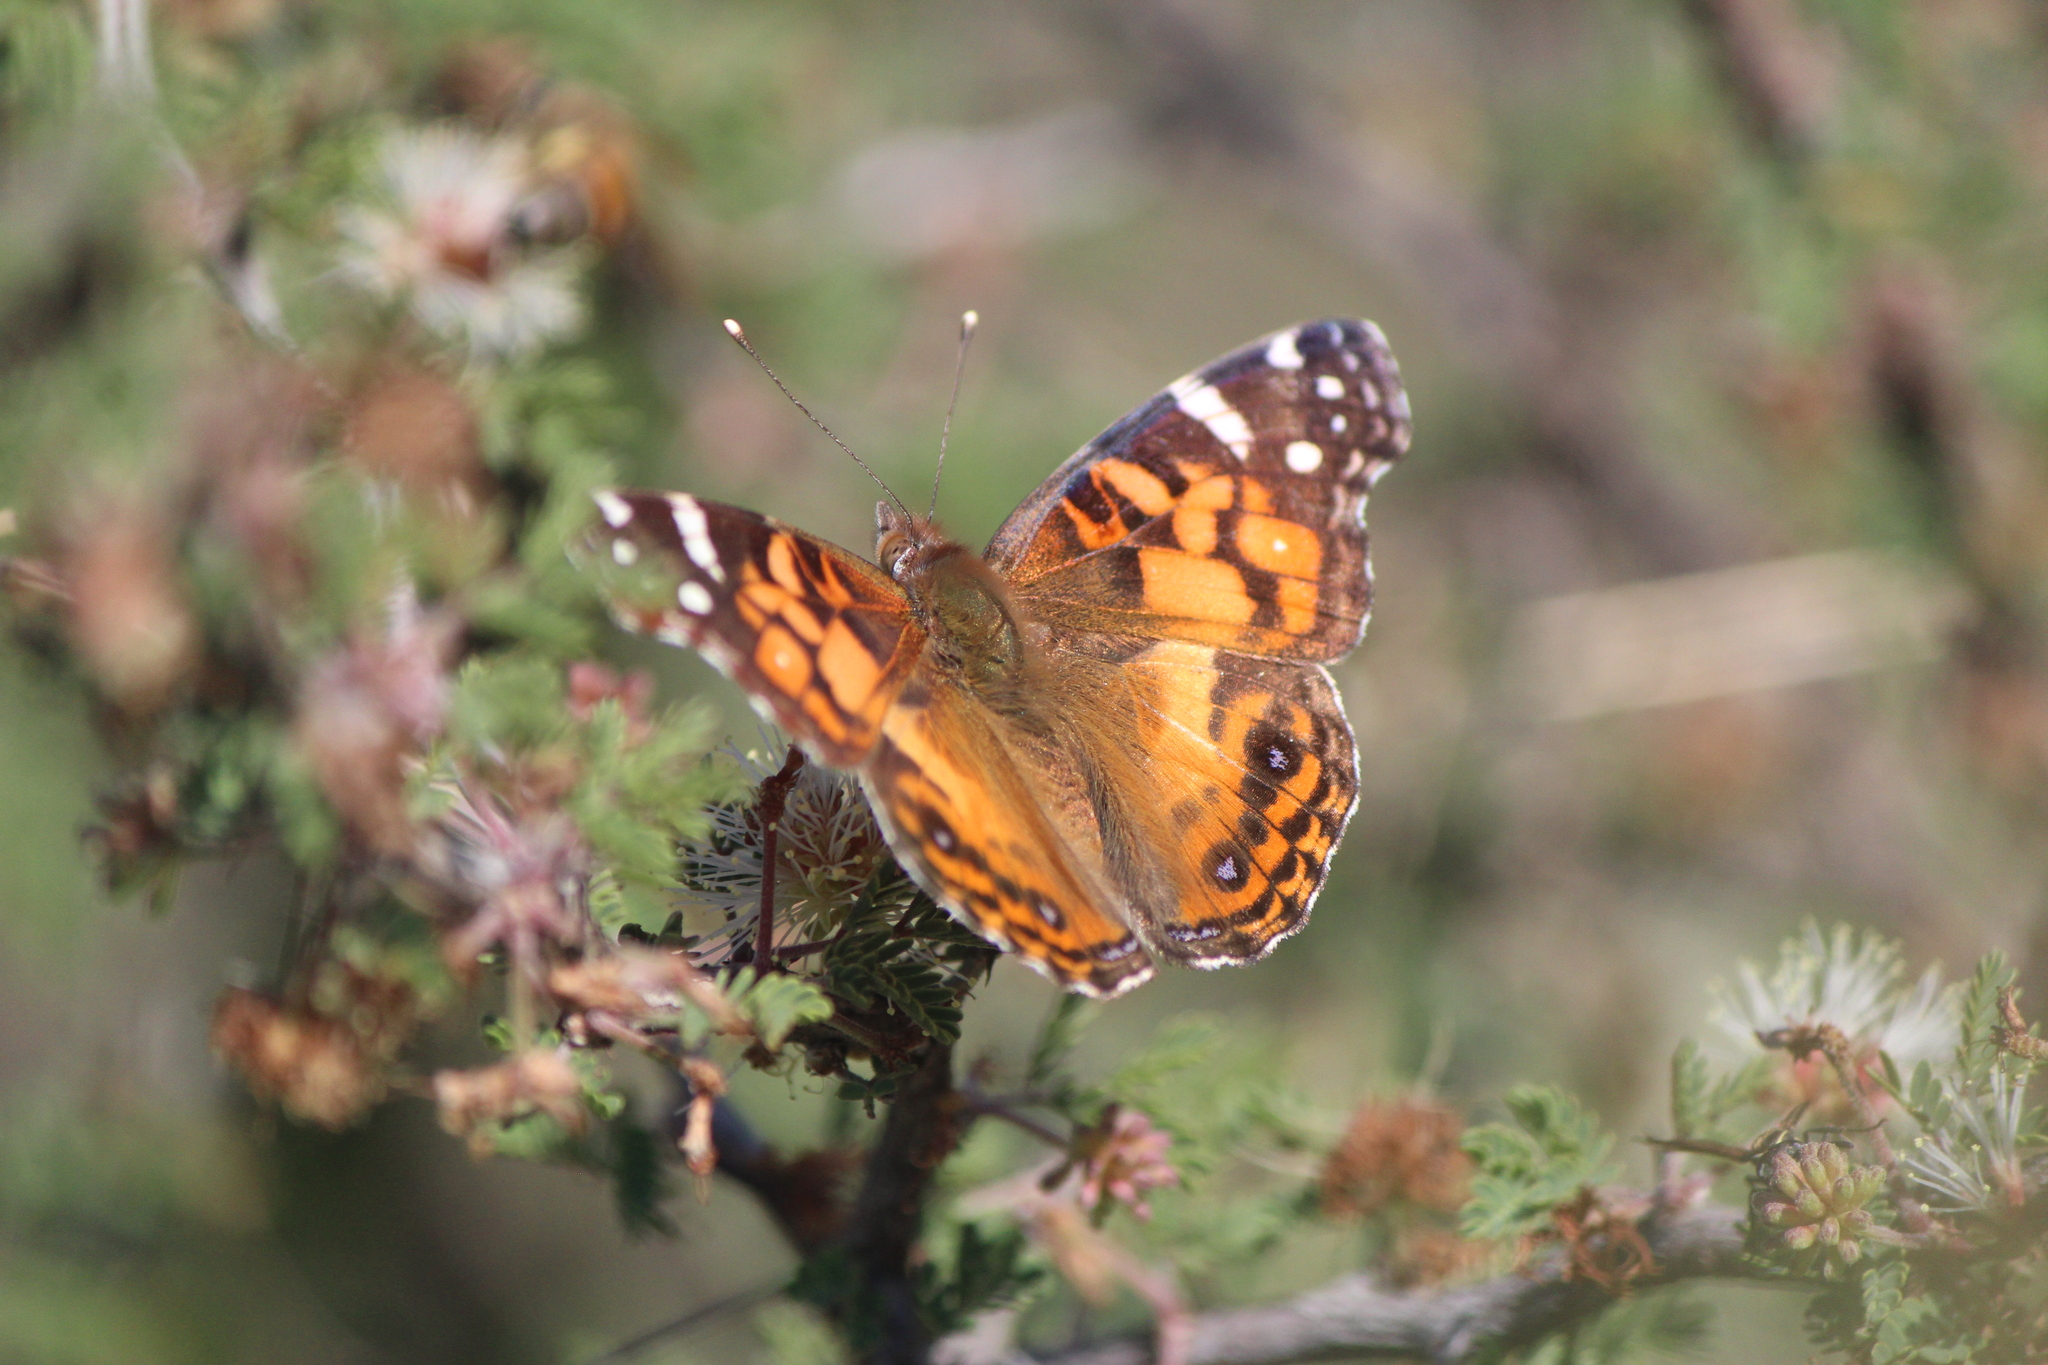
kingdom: Animalia
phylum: Arthropoda
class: Insecta
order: Lepidoptera
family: Nymphalidae
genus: Vanessa
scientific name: Vanessa virginiensis
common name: American lady
